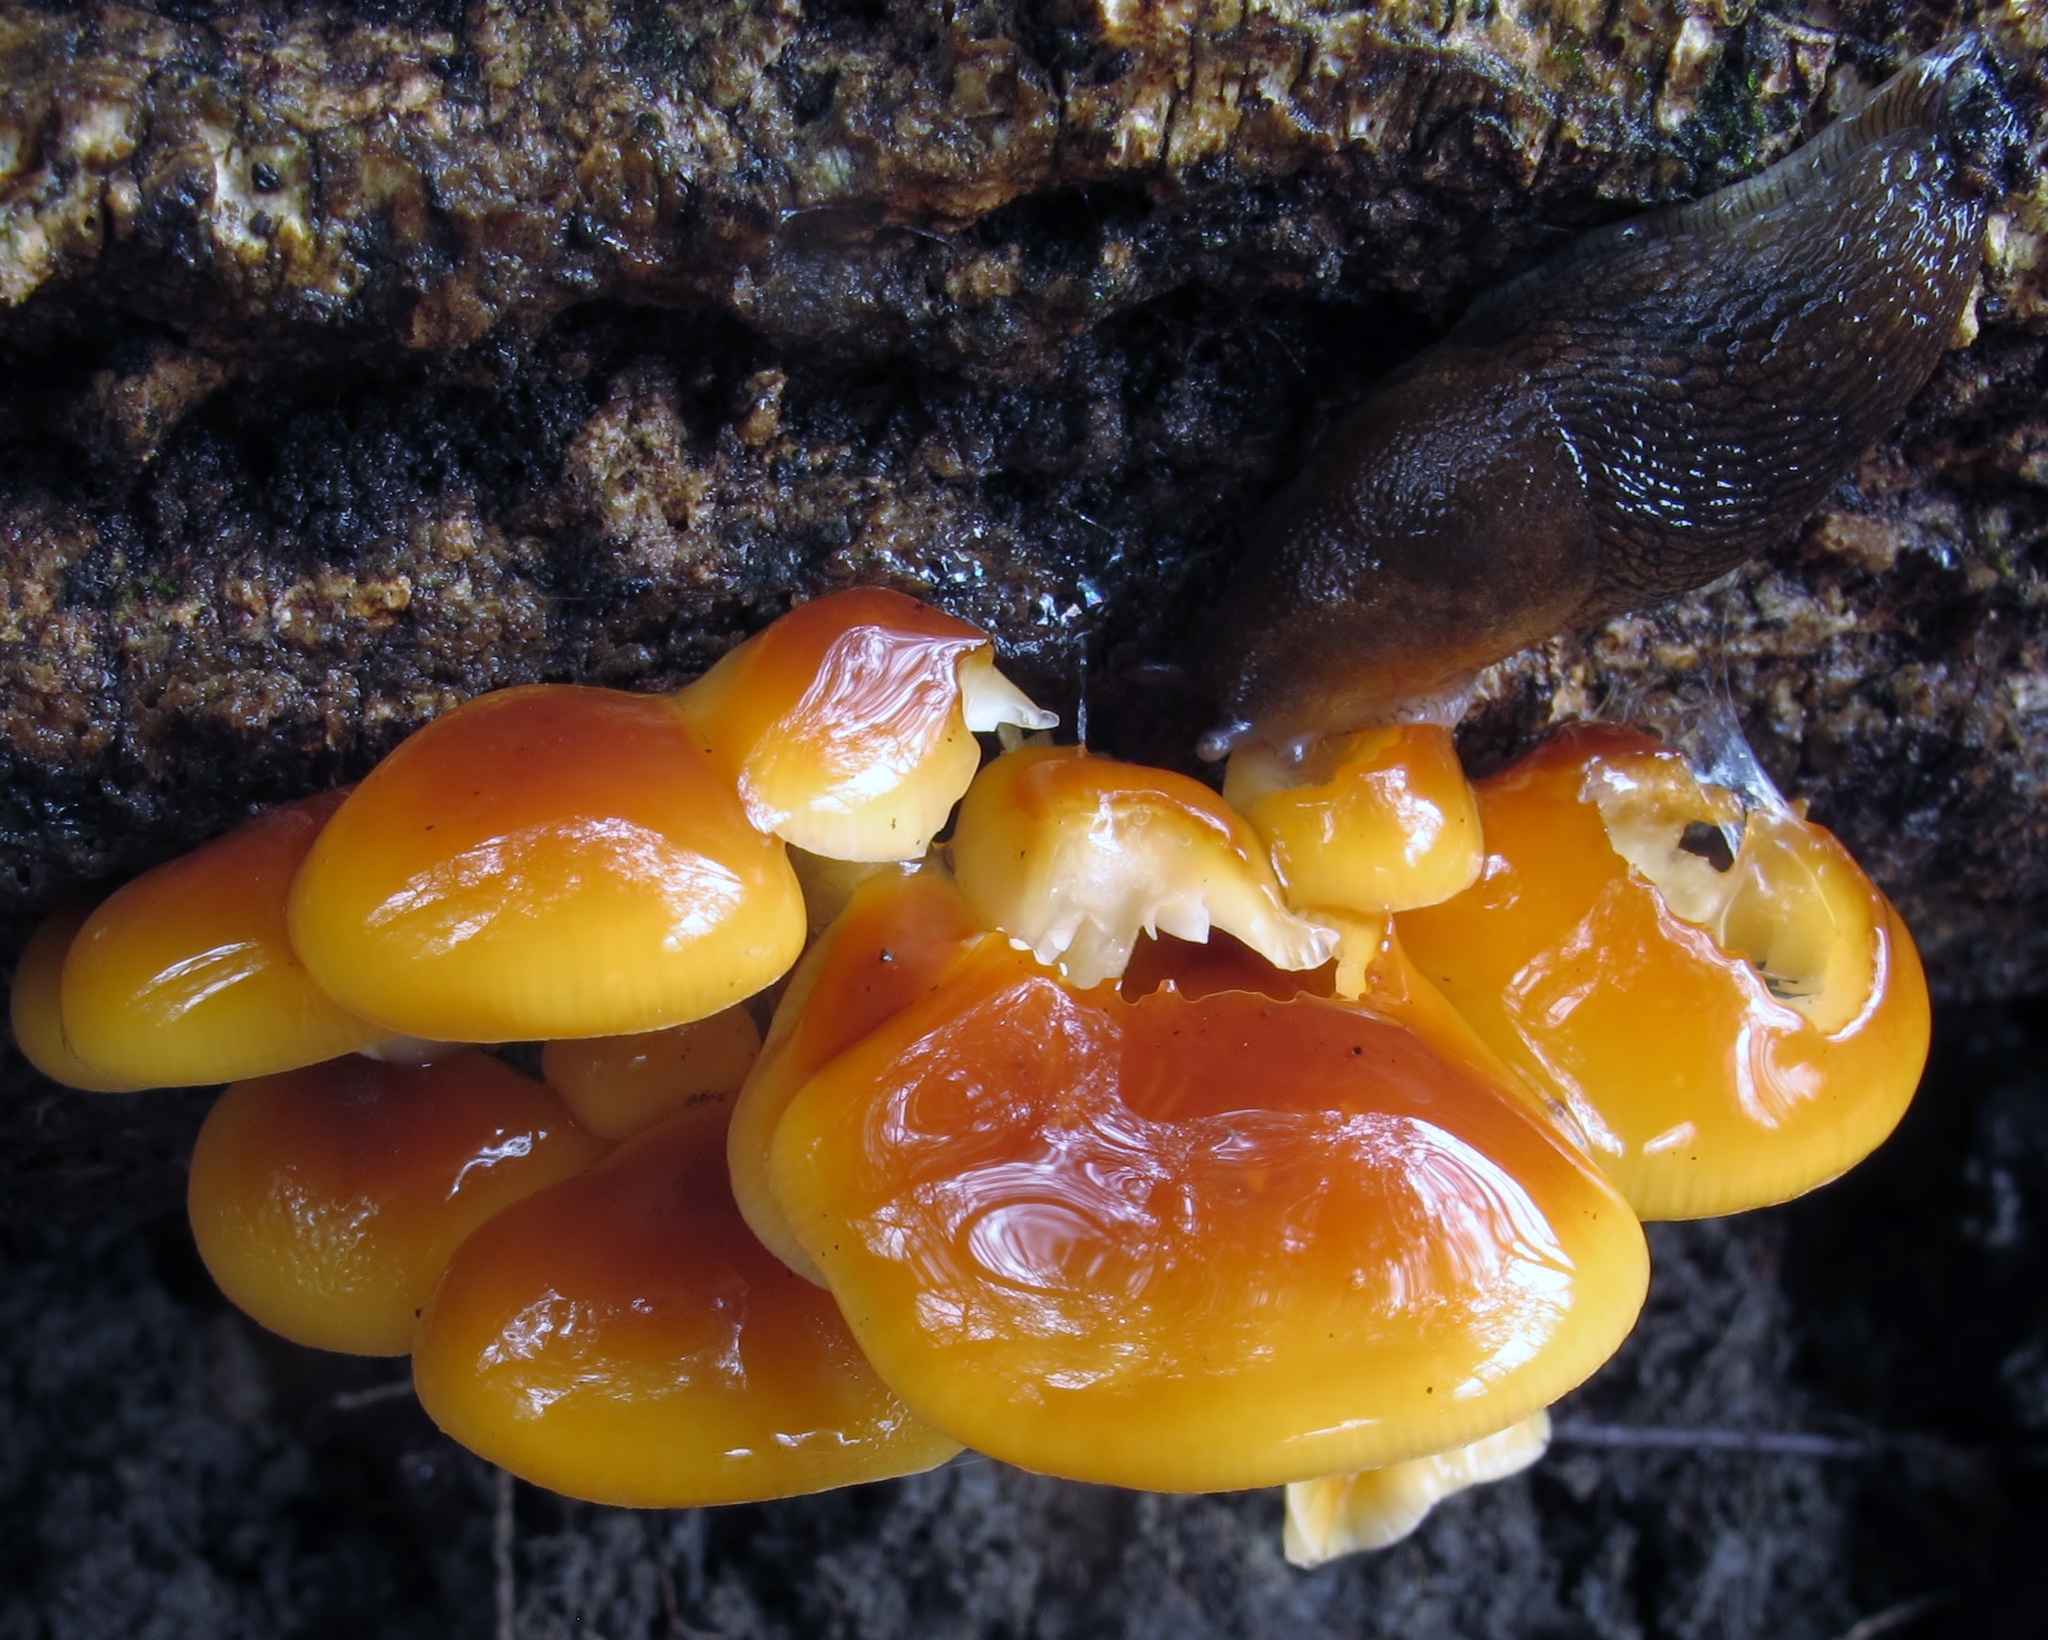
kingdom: Fungi
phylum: Basidiomycota
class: Agaricomycetes
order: Agaricales
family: Physalacriaceae
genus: Flammulina
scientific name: Flammulina velutipes
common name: Velvet shank
